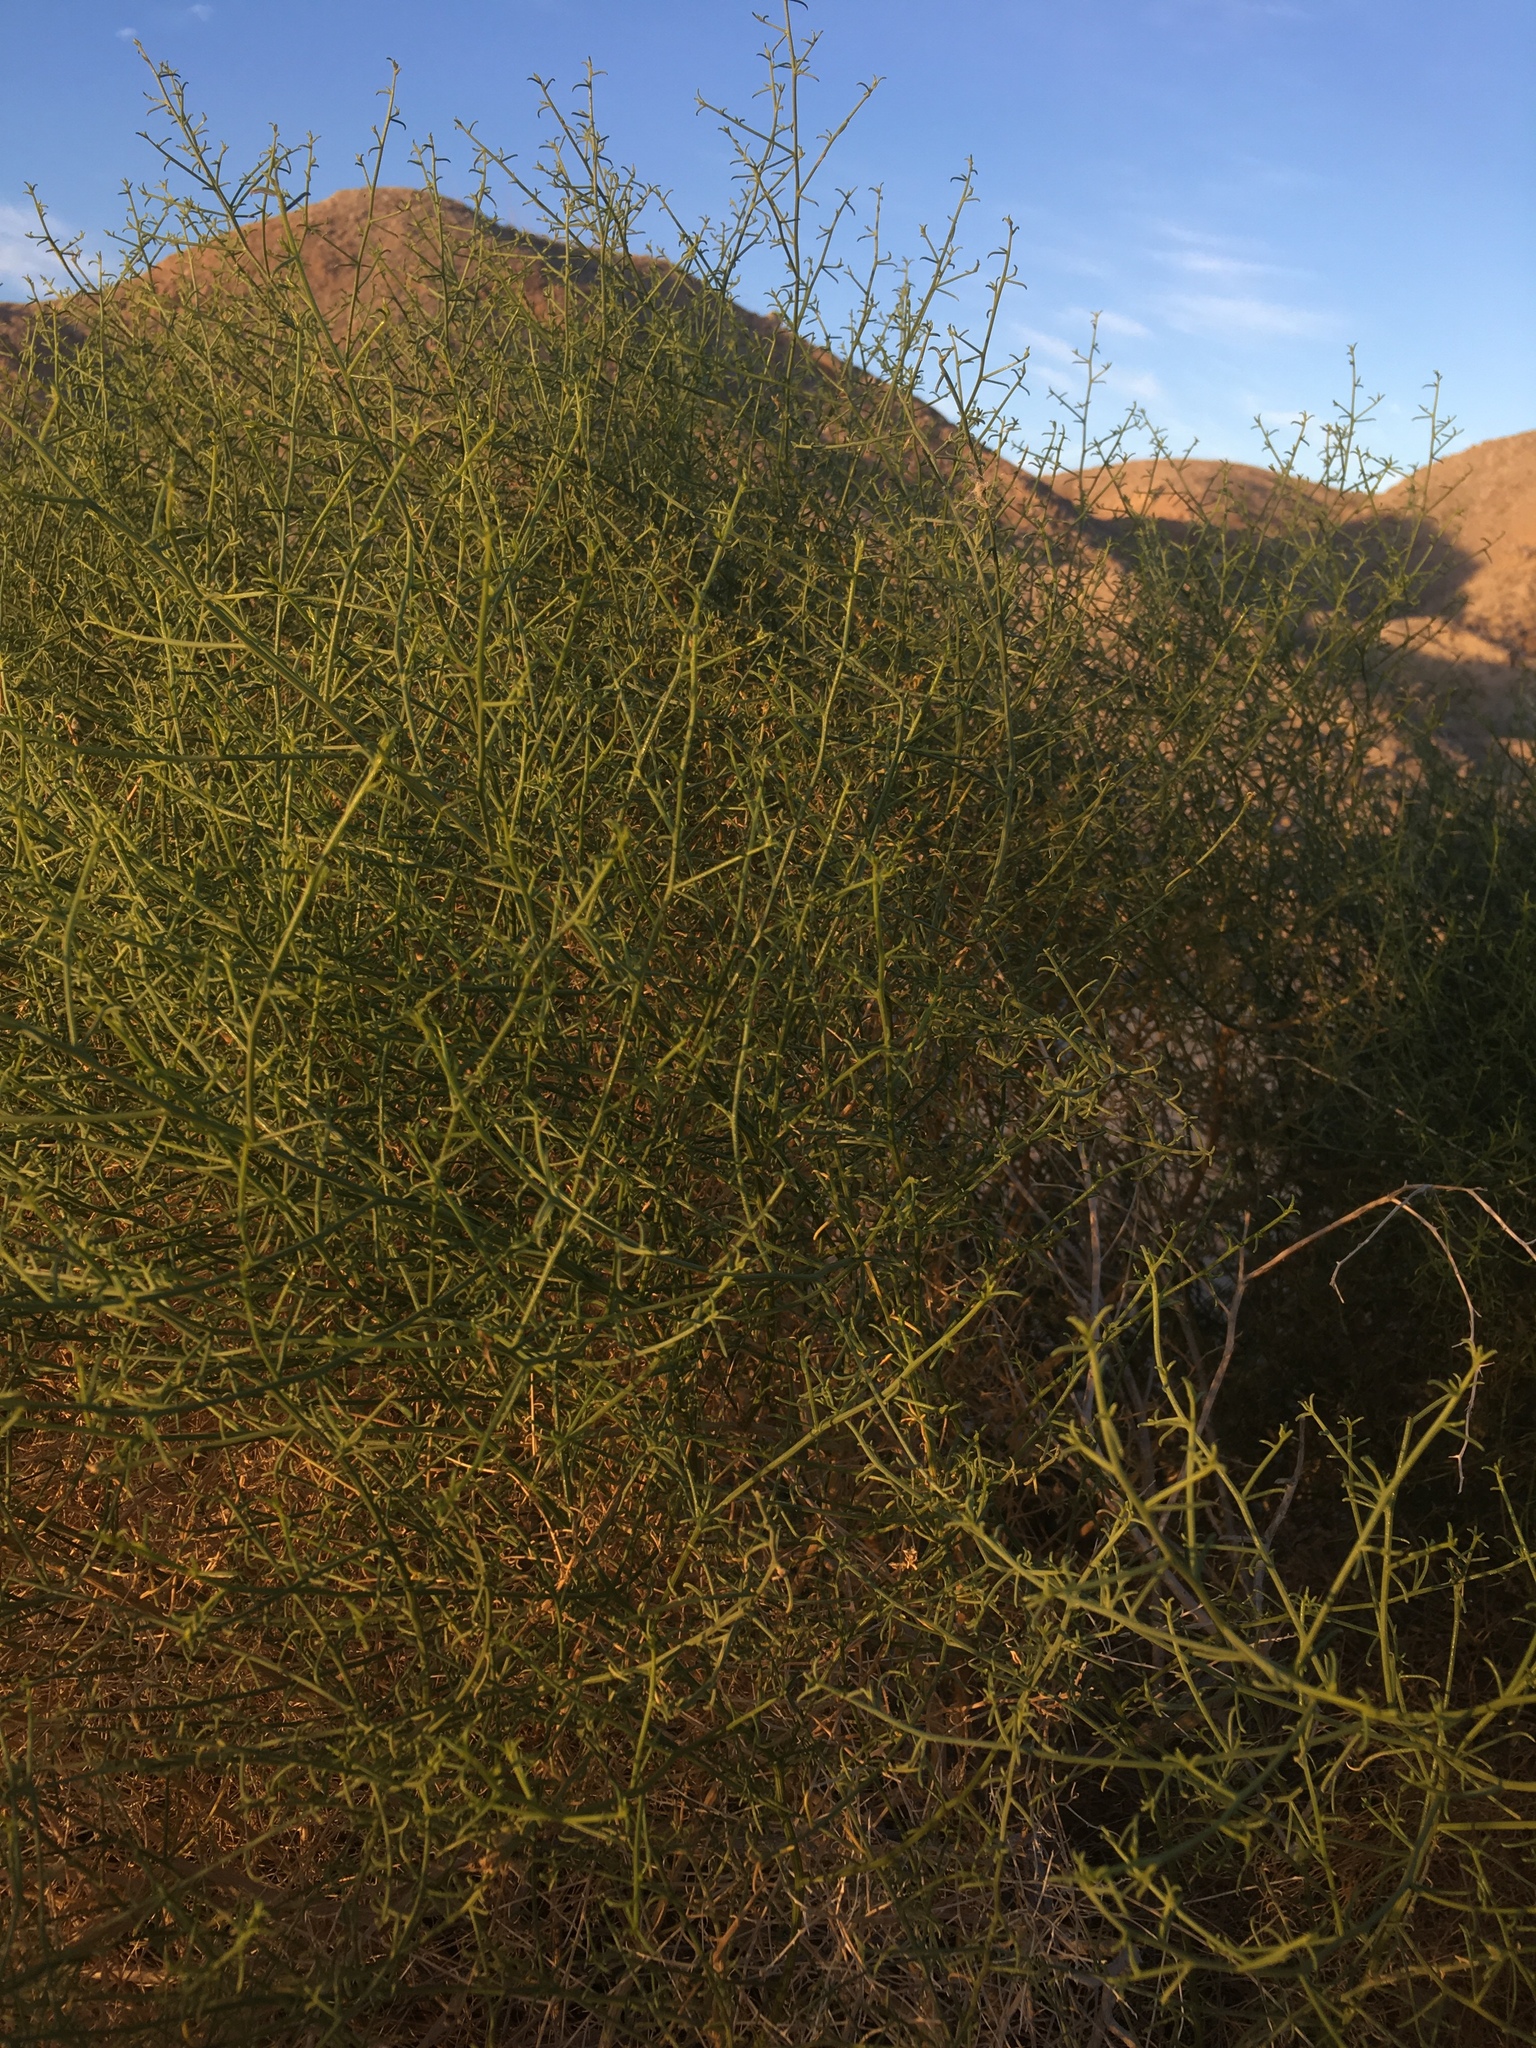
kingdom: Plantae
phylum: Tracheophyta
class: Magnoliopsida
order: Asterales
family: Asteraceae
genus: Ambrosia
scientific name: Ambrosia salsola
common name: Burrobrush
